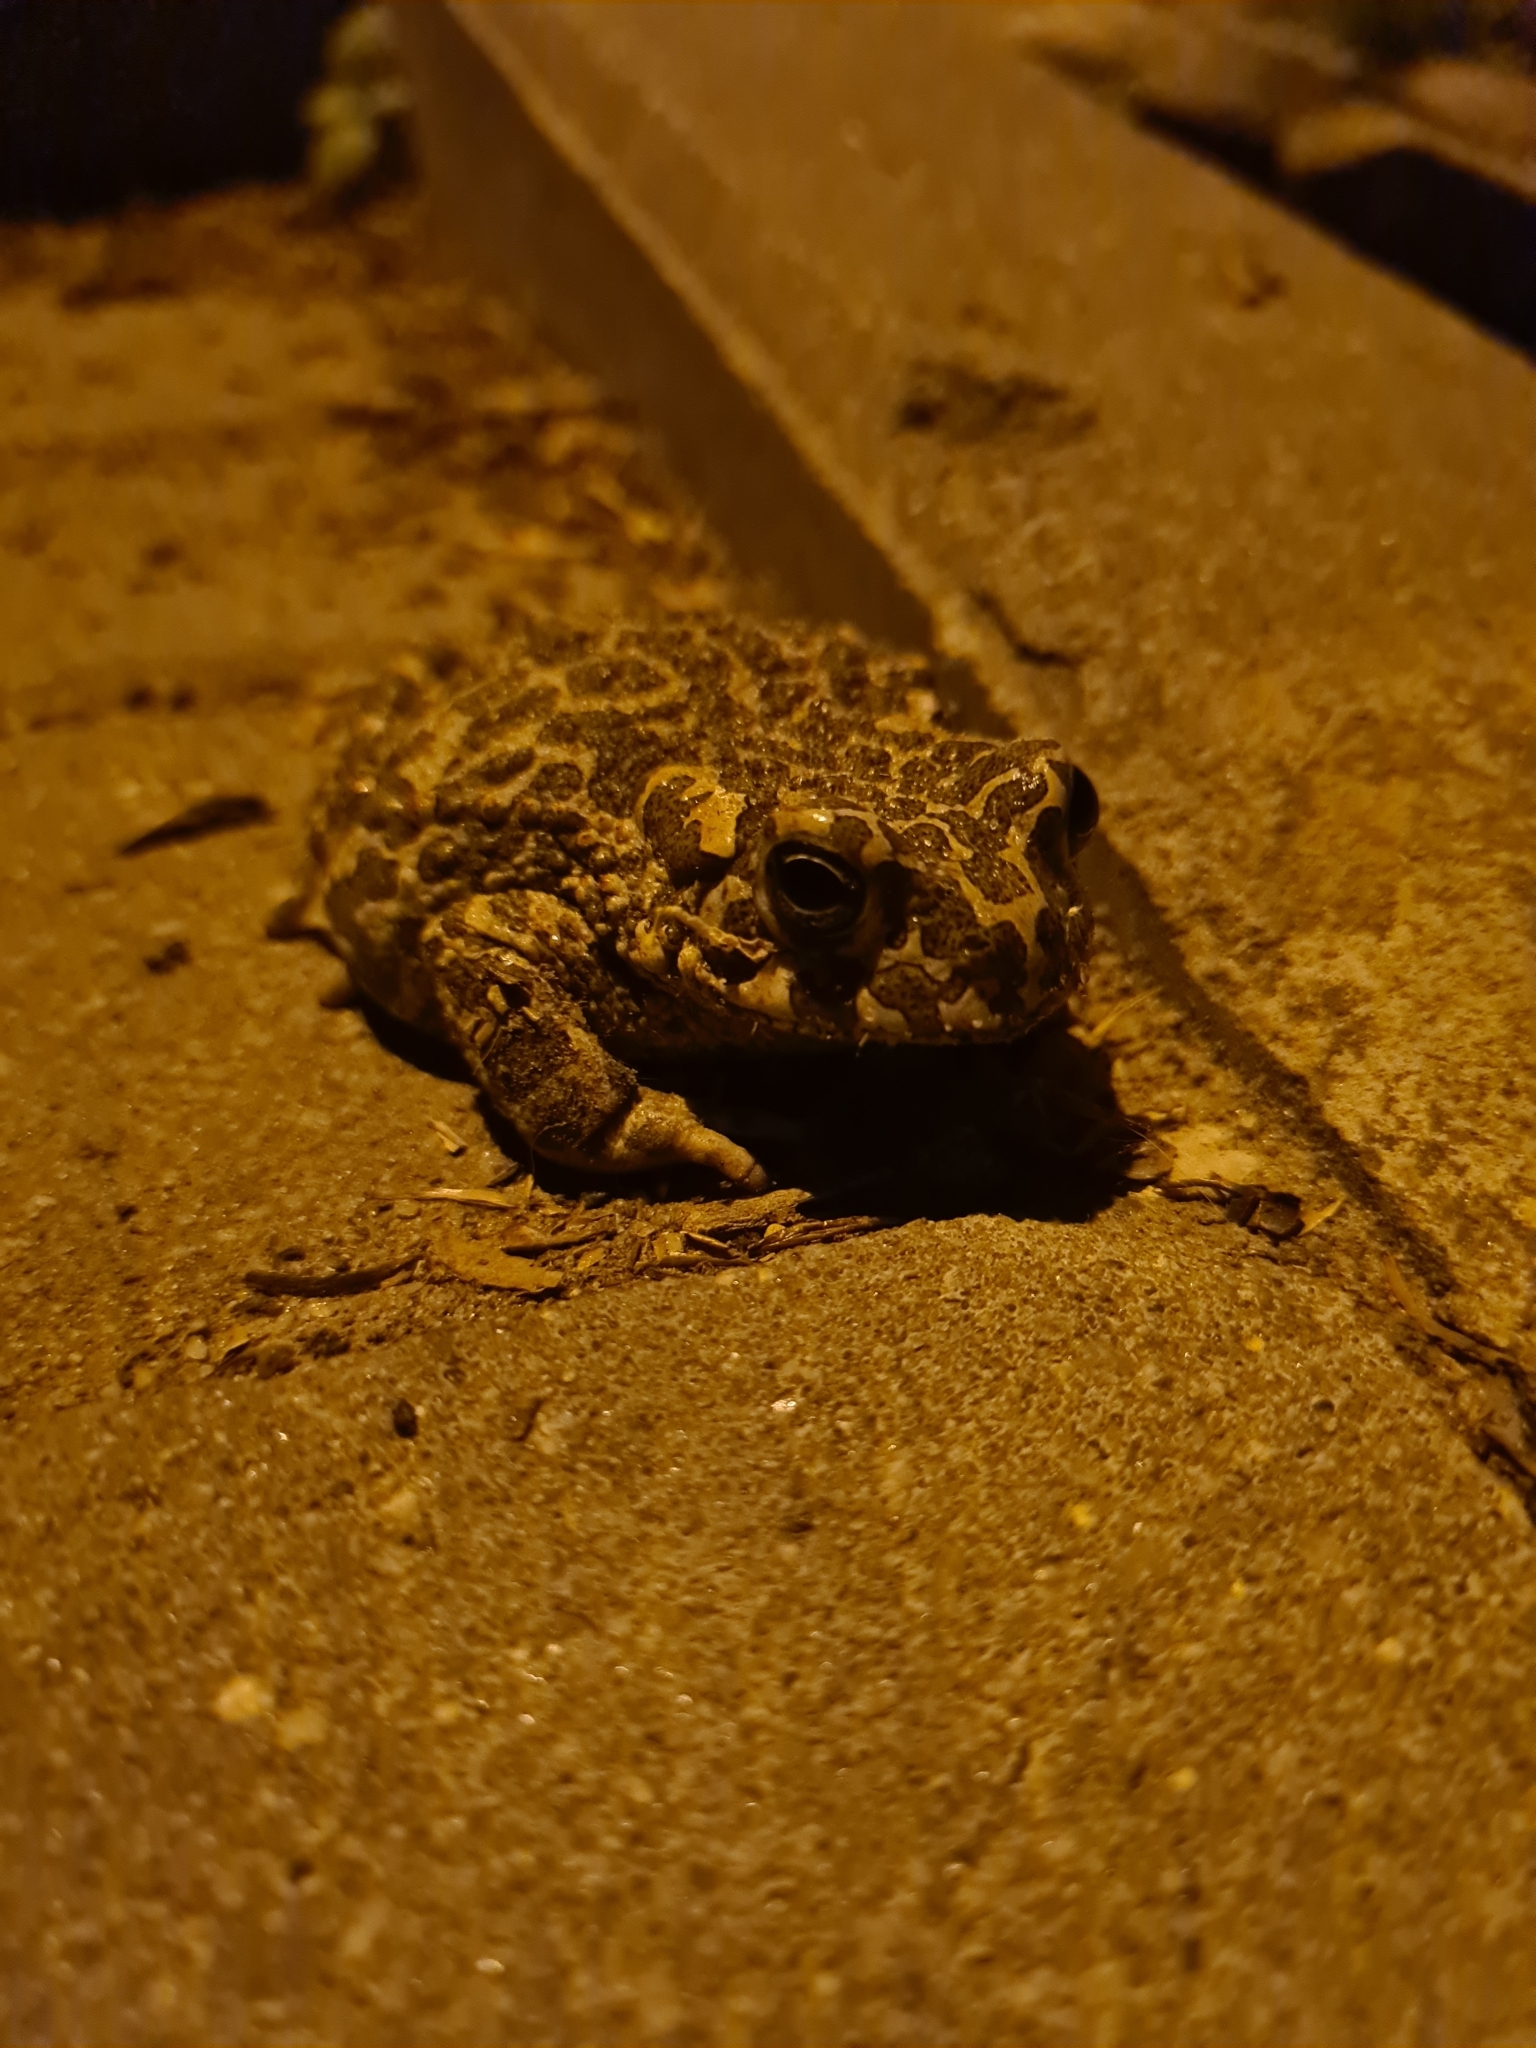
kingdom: Animalia
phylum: Chordata
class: Amphibia
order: Anura
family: Bufonidae
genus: Bufotes
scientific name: Bufotes viridis
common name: European green toad
